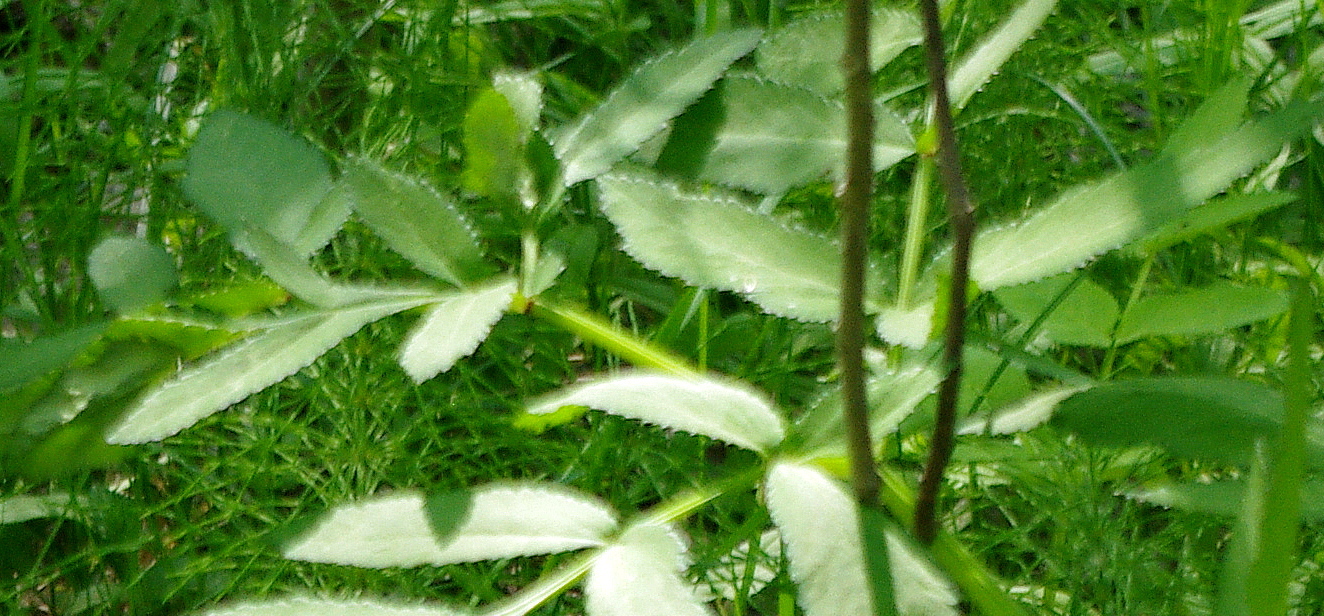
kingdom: Plantae
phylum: Tracheophyta
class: Magnoliopsida
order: Apiales
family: Apiaceae
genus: Angelica
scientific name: Angelica sylvestris
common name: Wild angelica
